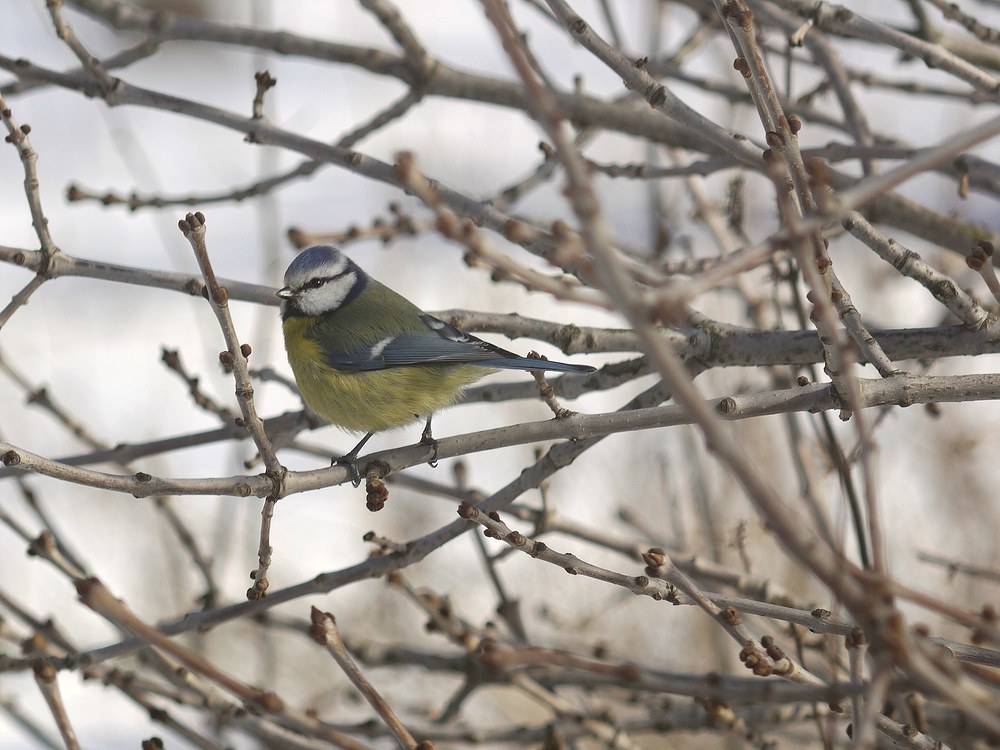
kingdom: Animalia
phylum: Chordata
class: Aves
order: Passeriformes
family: Paridae
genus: Cyanistes
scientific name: Cyanistes caeruleus
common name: Eurasian blue tit
